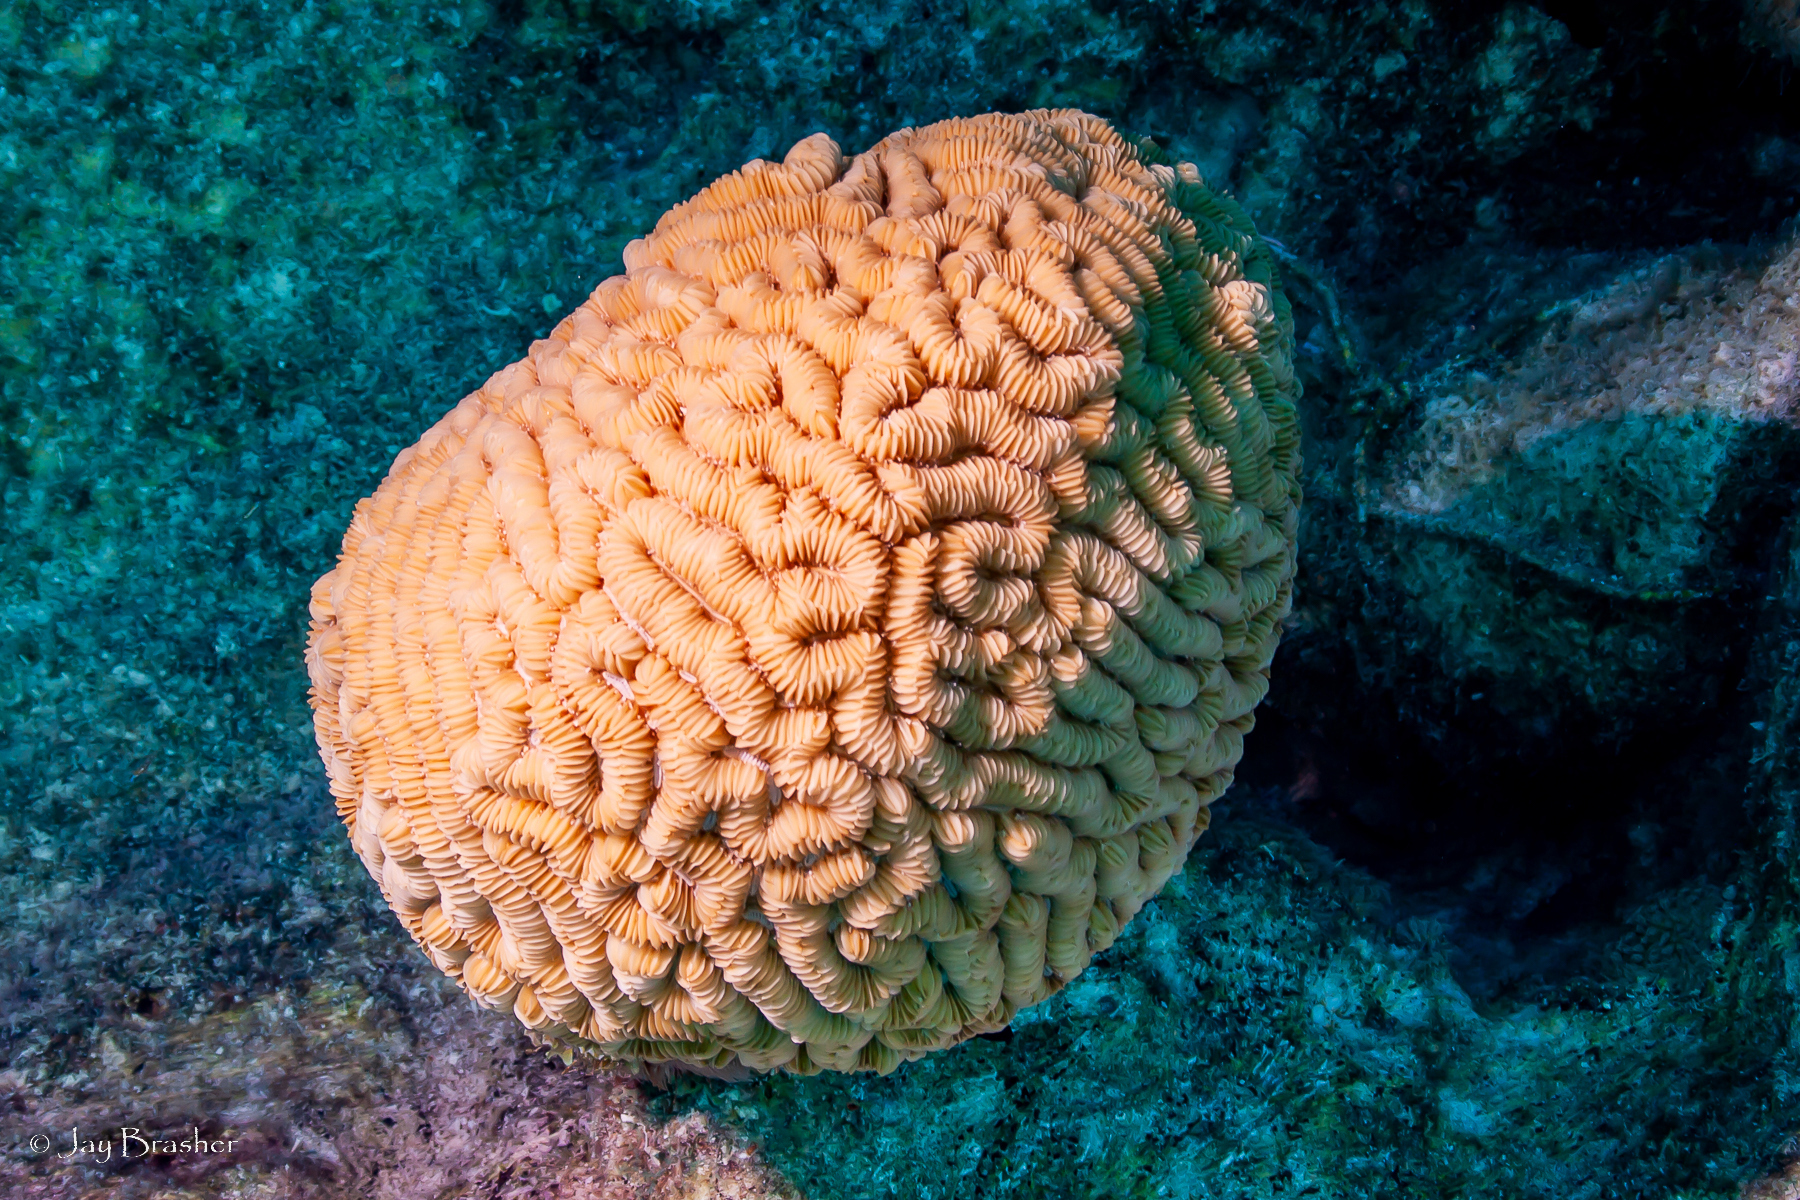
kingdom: Animalia
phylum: Cnidaria
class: Anthozoa
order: Scleractinia
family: Meandrinidae
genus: Meandrina
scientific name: Meandrina meandrites
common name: Maze coral
